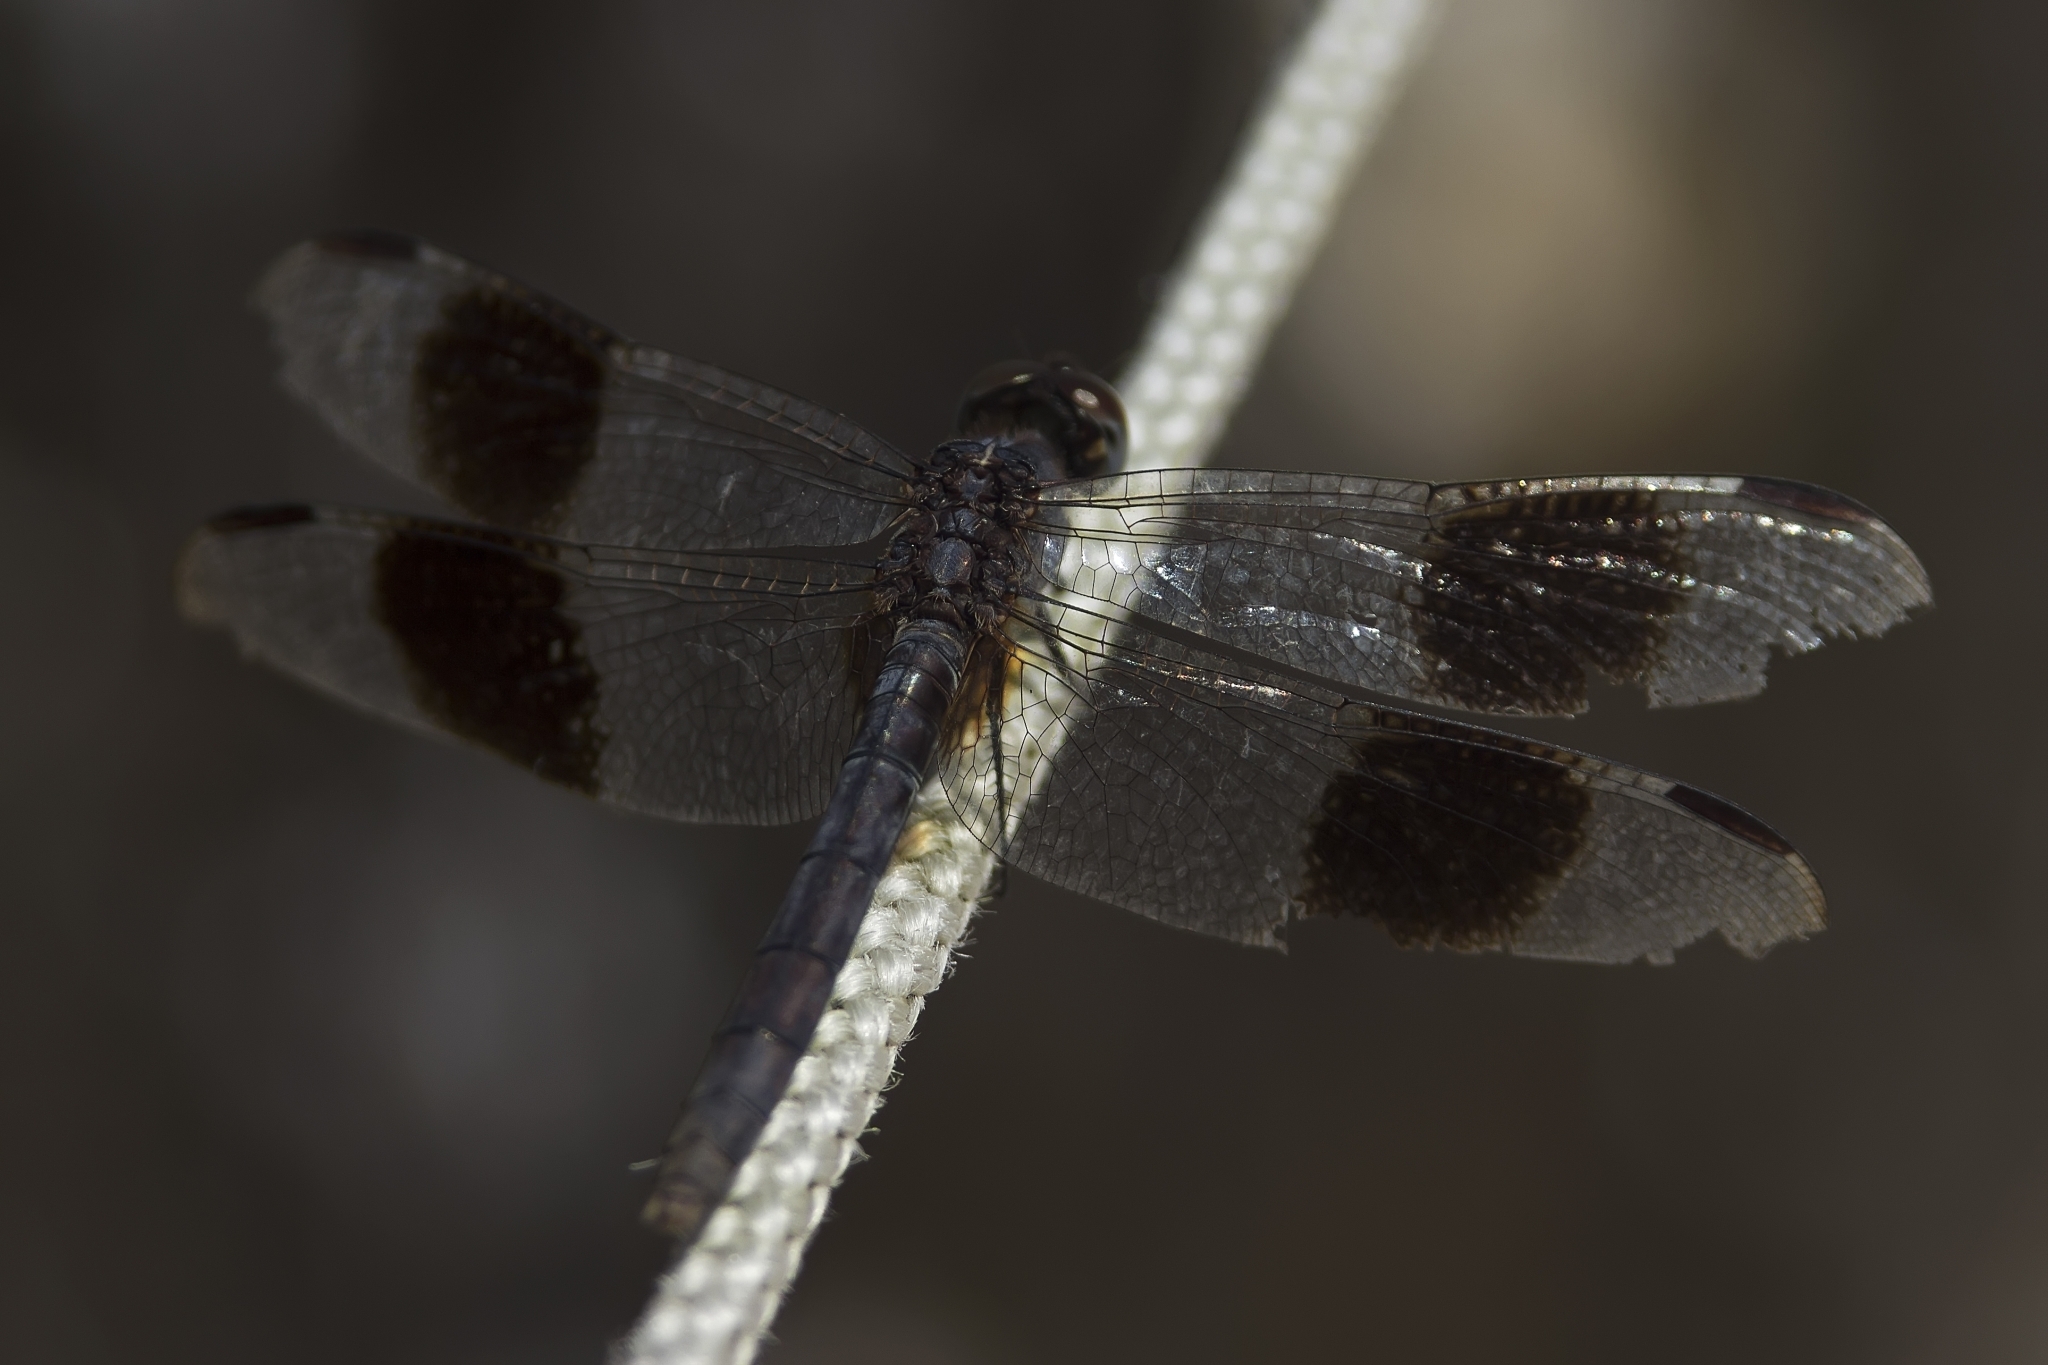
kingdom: Animalia
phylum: Arthropoda
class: Insecta
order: Odonata
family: Libellulidae
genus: Erythrodiplax
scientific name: Erythrodiplax umbrata
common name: Band-winged dragonlet
